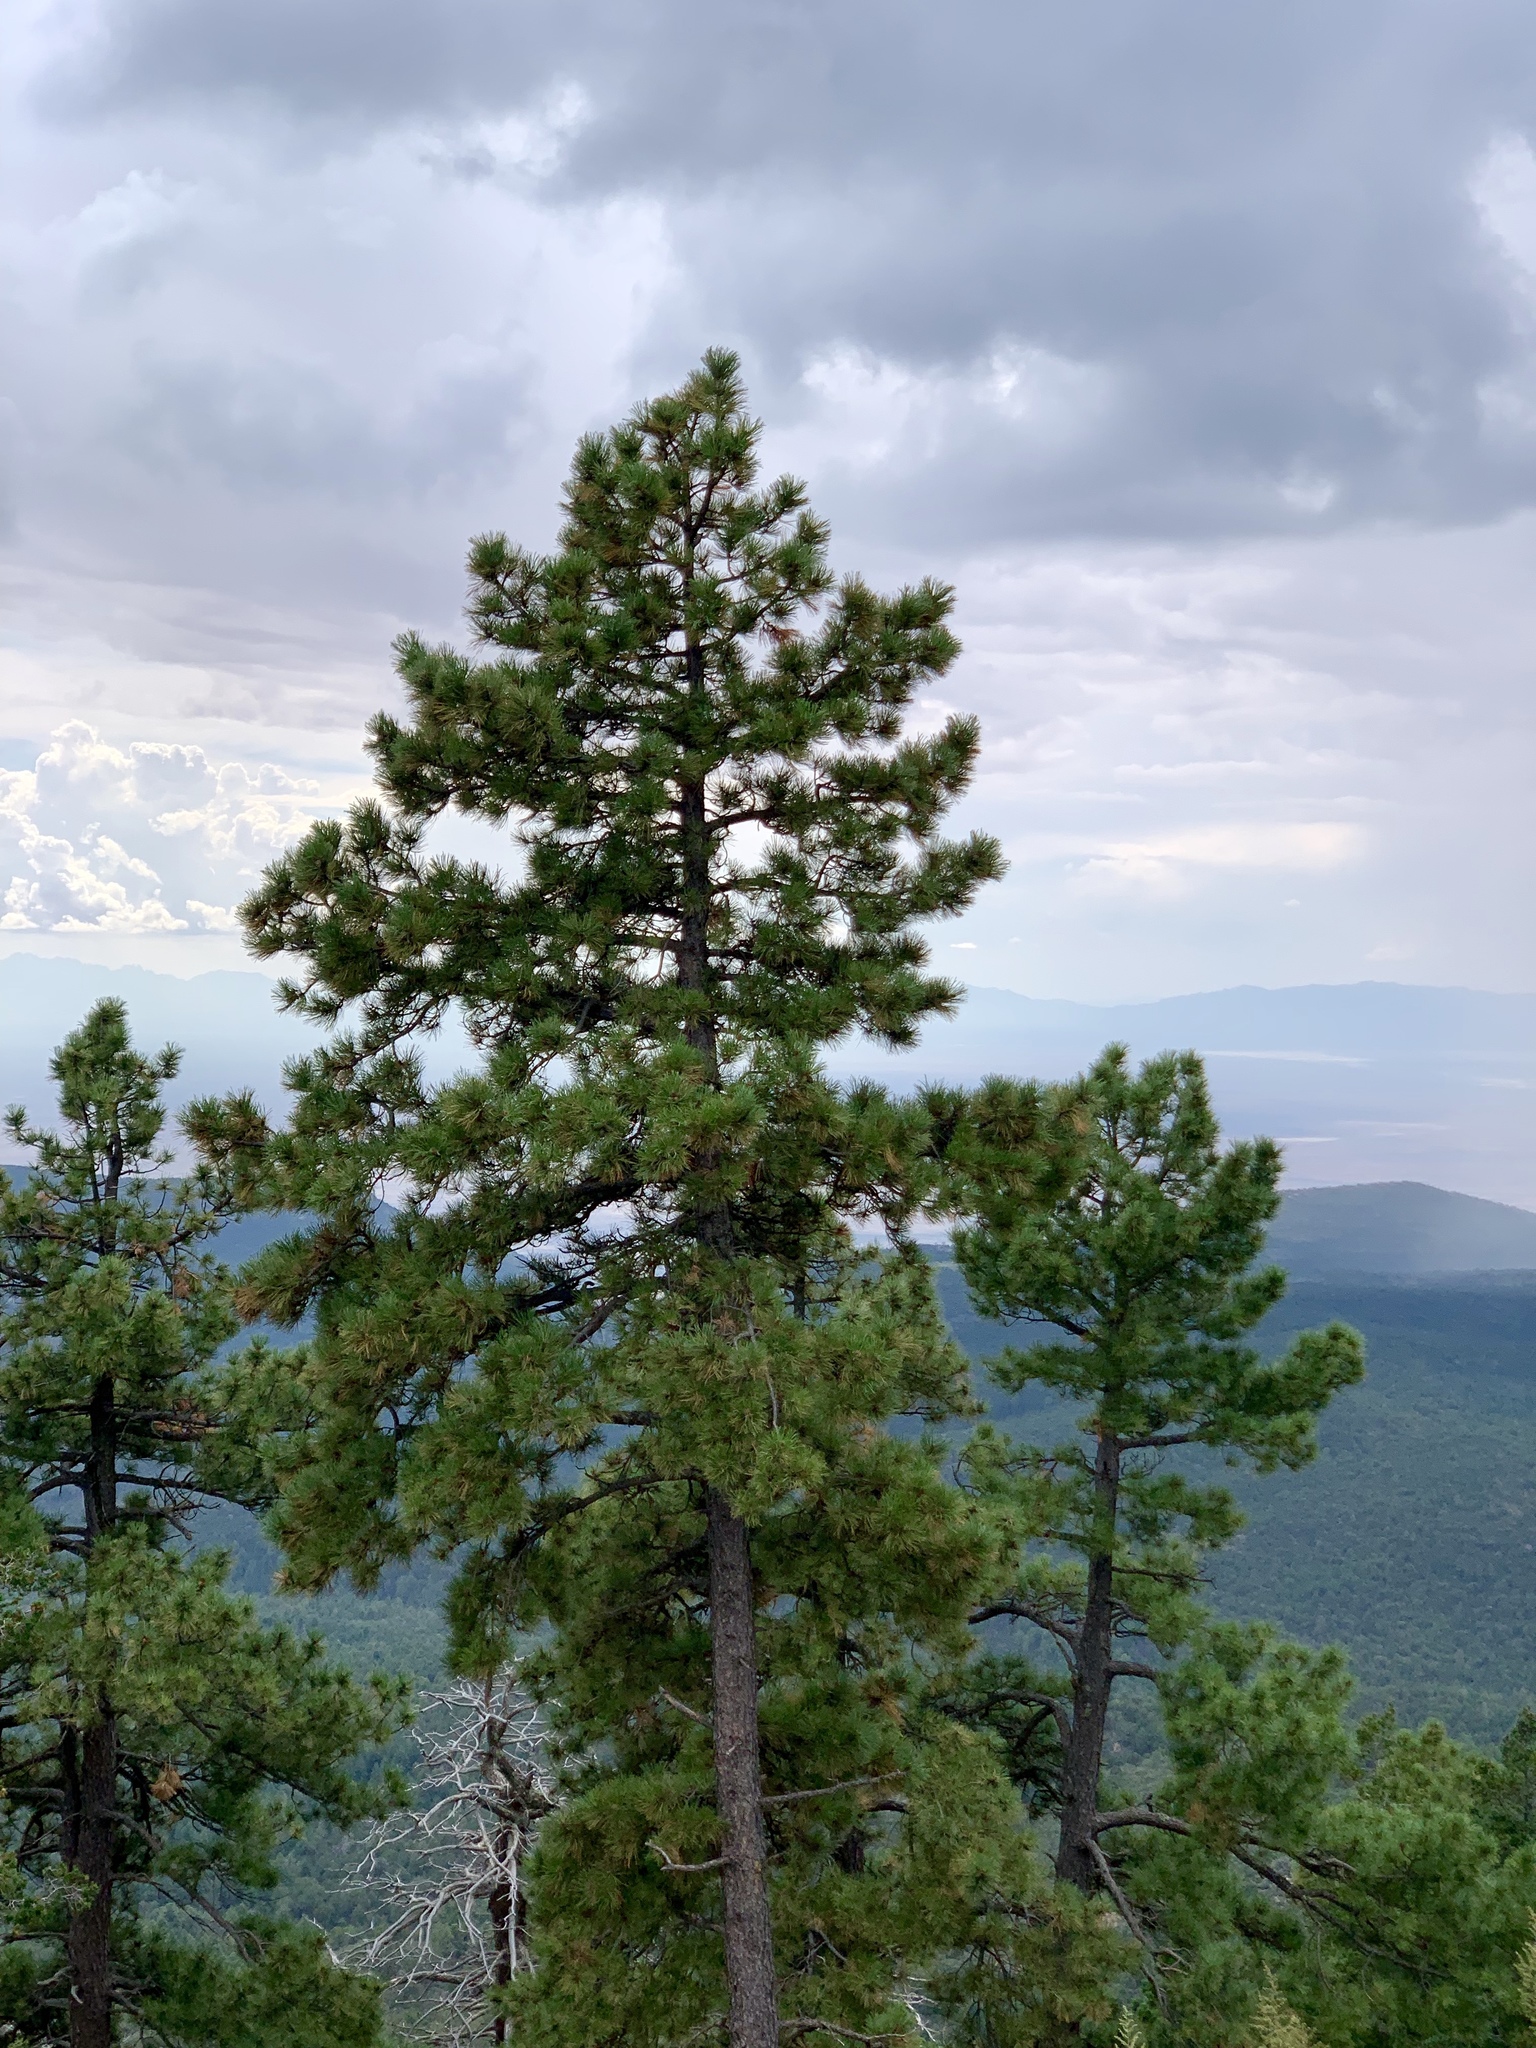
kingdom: Plantae
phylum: Tracheophyta
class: Pinopsida
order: Pinales
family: Pinaceae
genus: Pinus
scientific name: Pinus ponderosa
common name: Western yellow-pine
